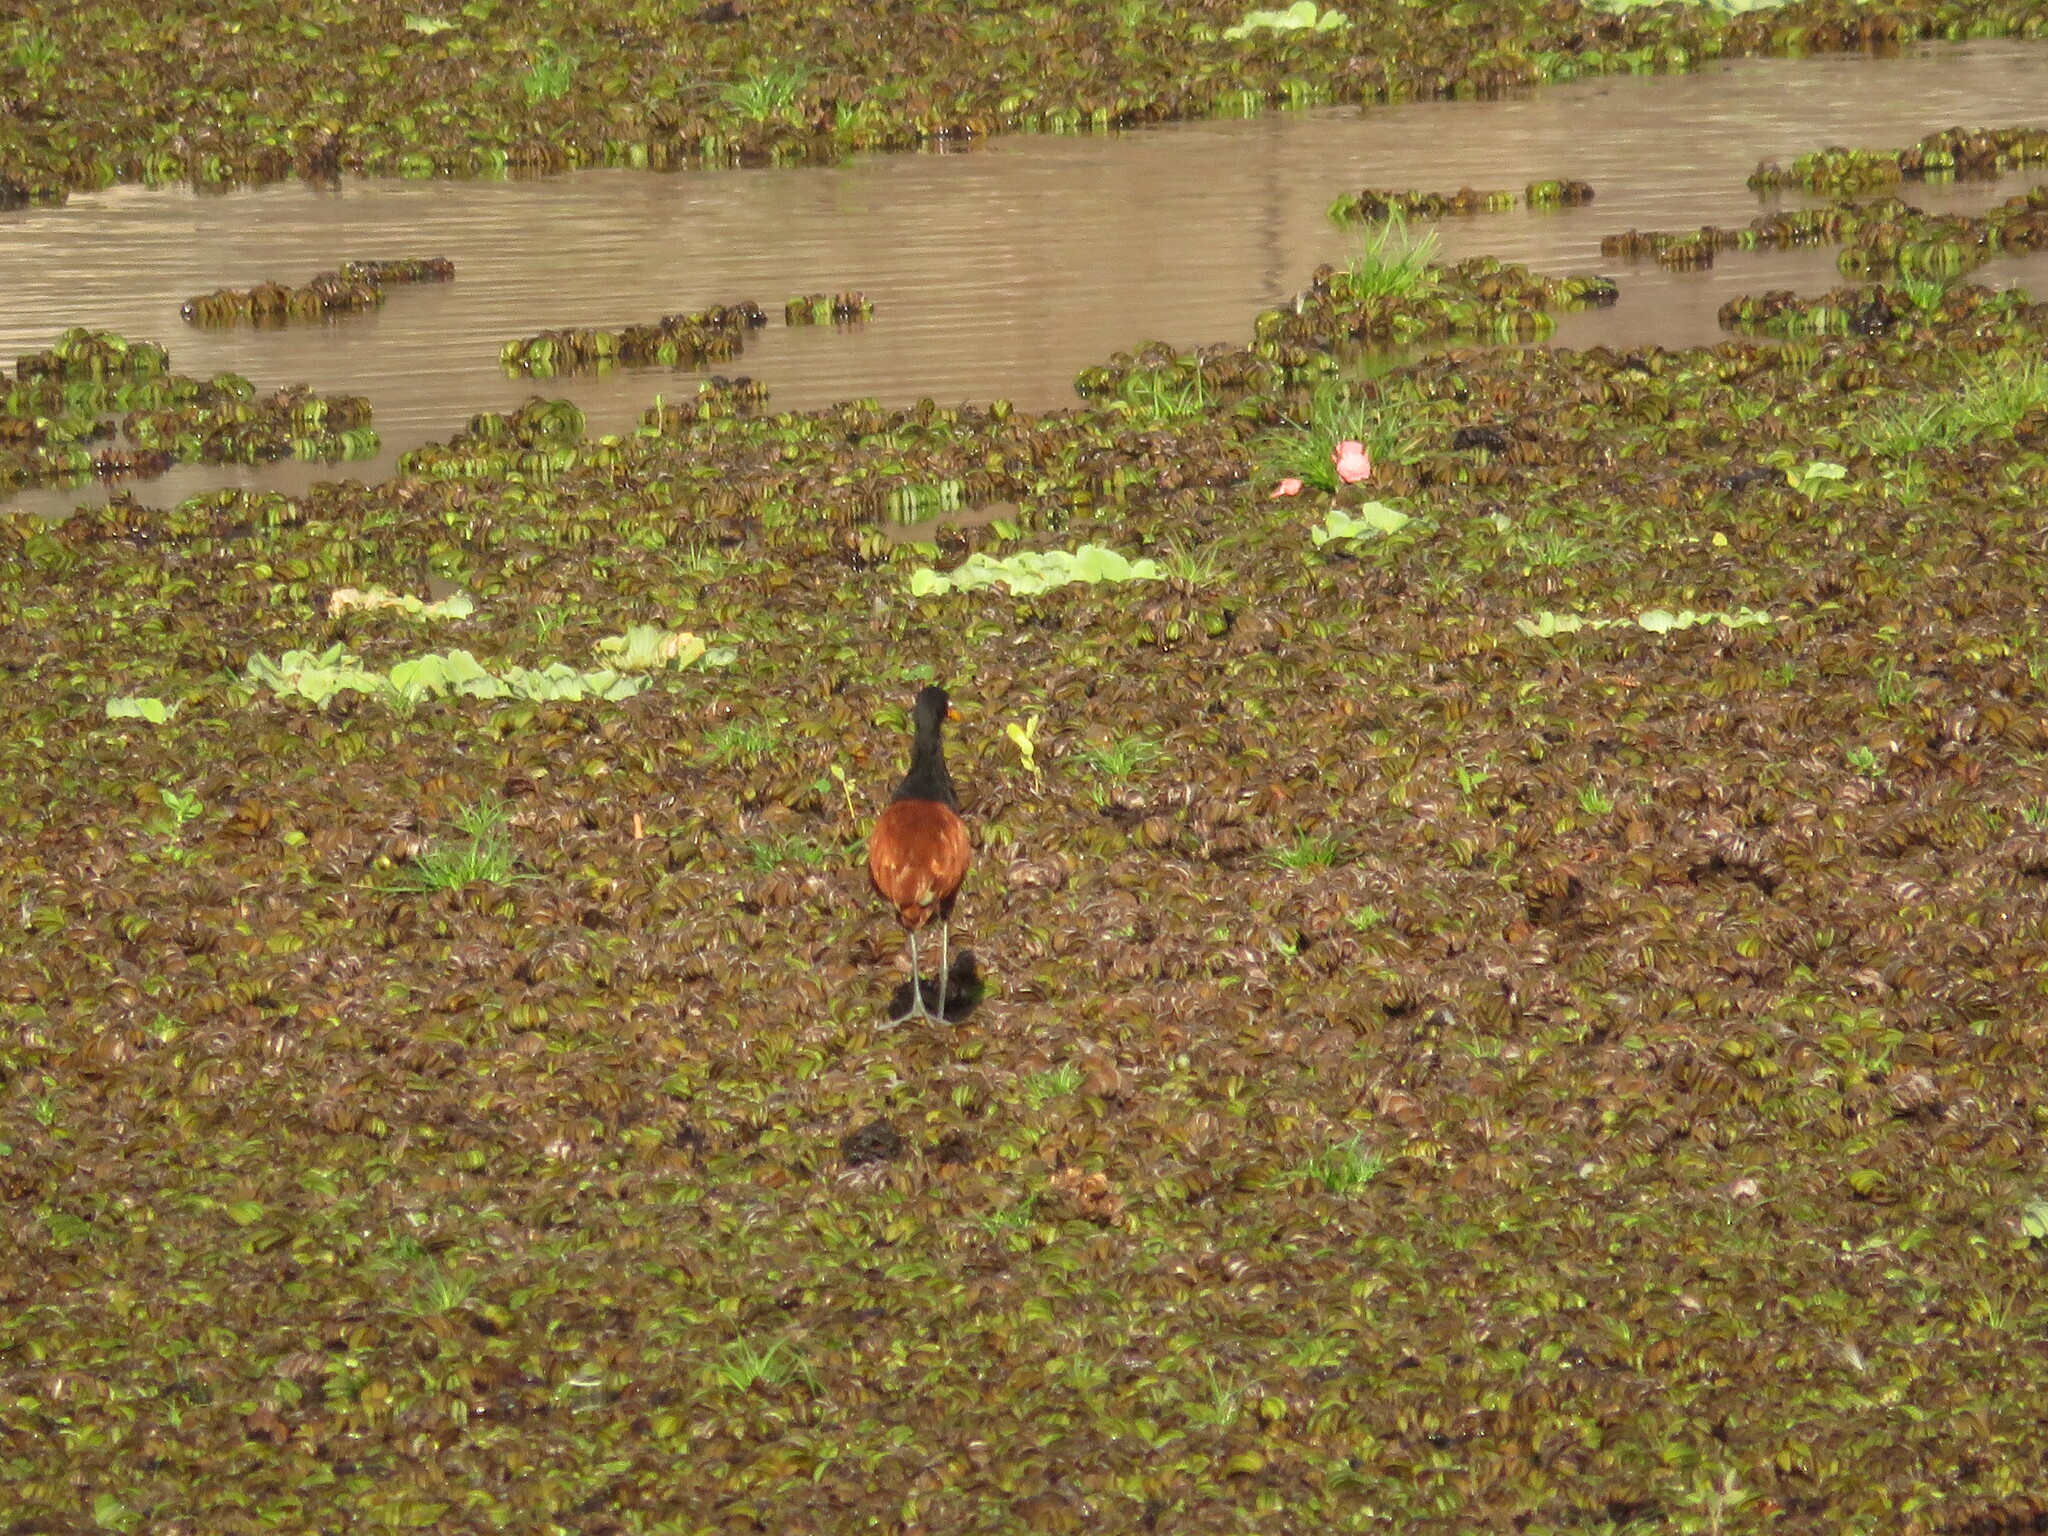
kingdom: Animalia
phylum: Chordata
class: Aves
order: Charadriiformes
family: Jacanidae
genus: Jacana
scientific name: Jacana jacana
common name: Wattled jacana
